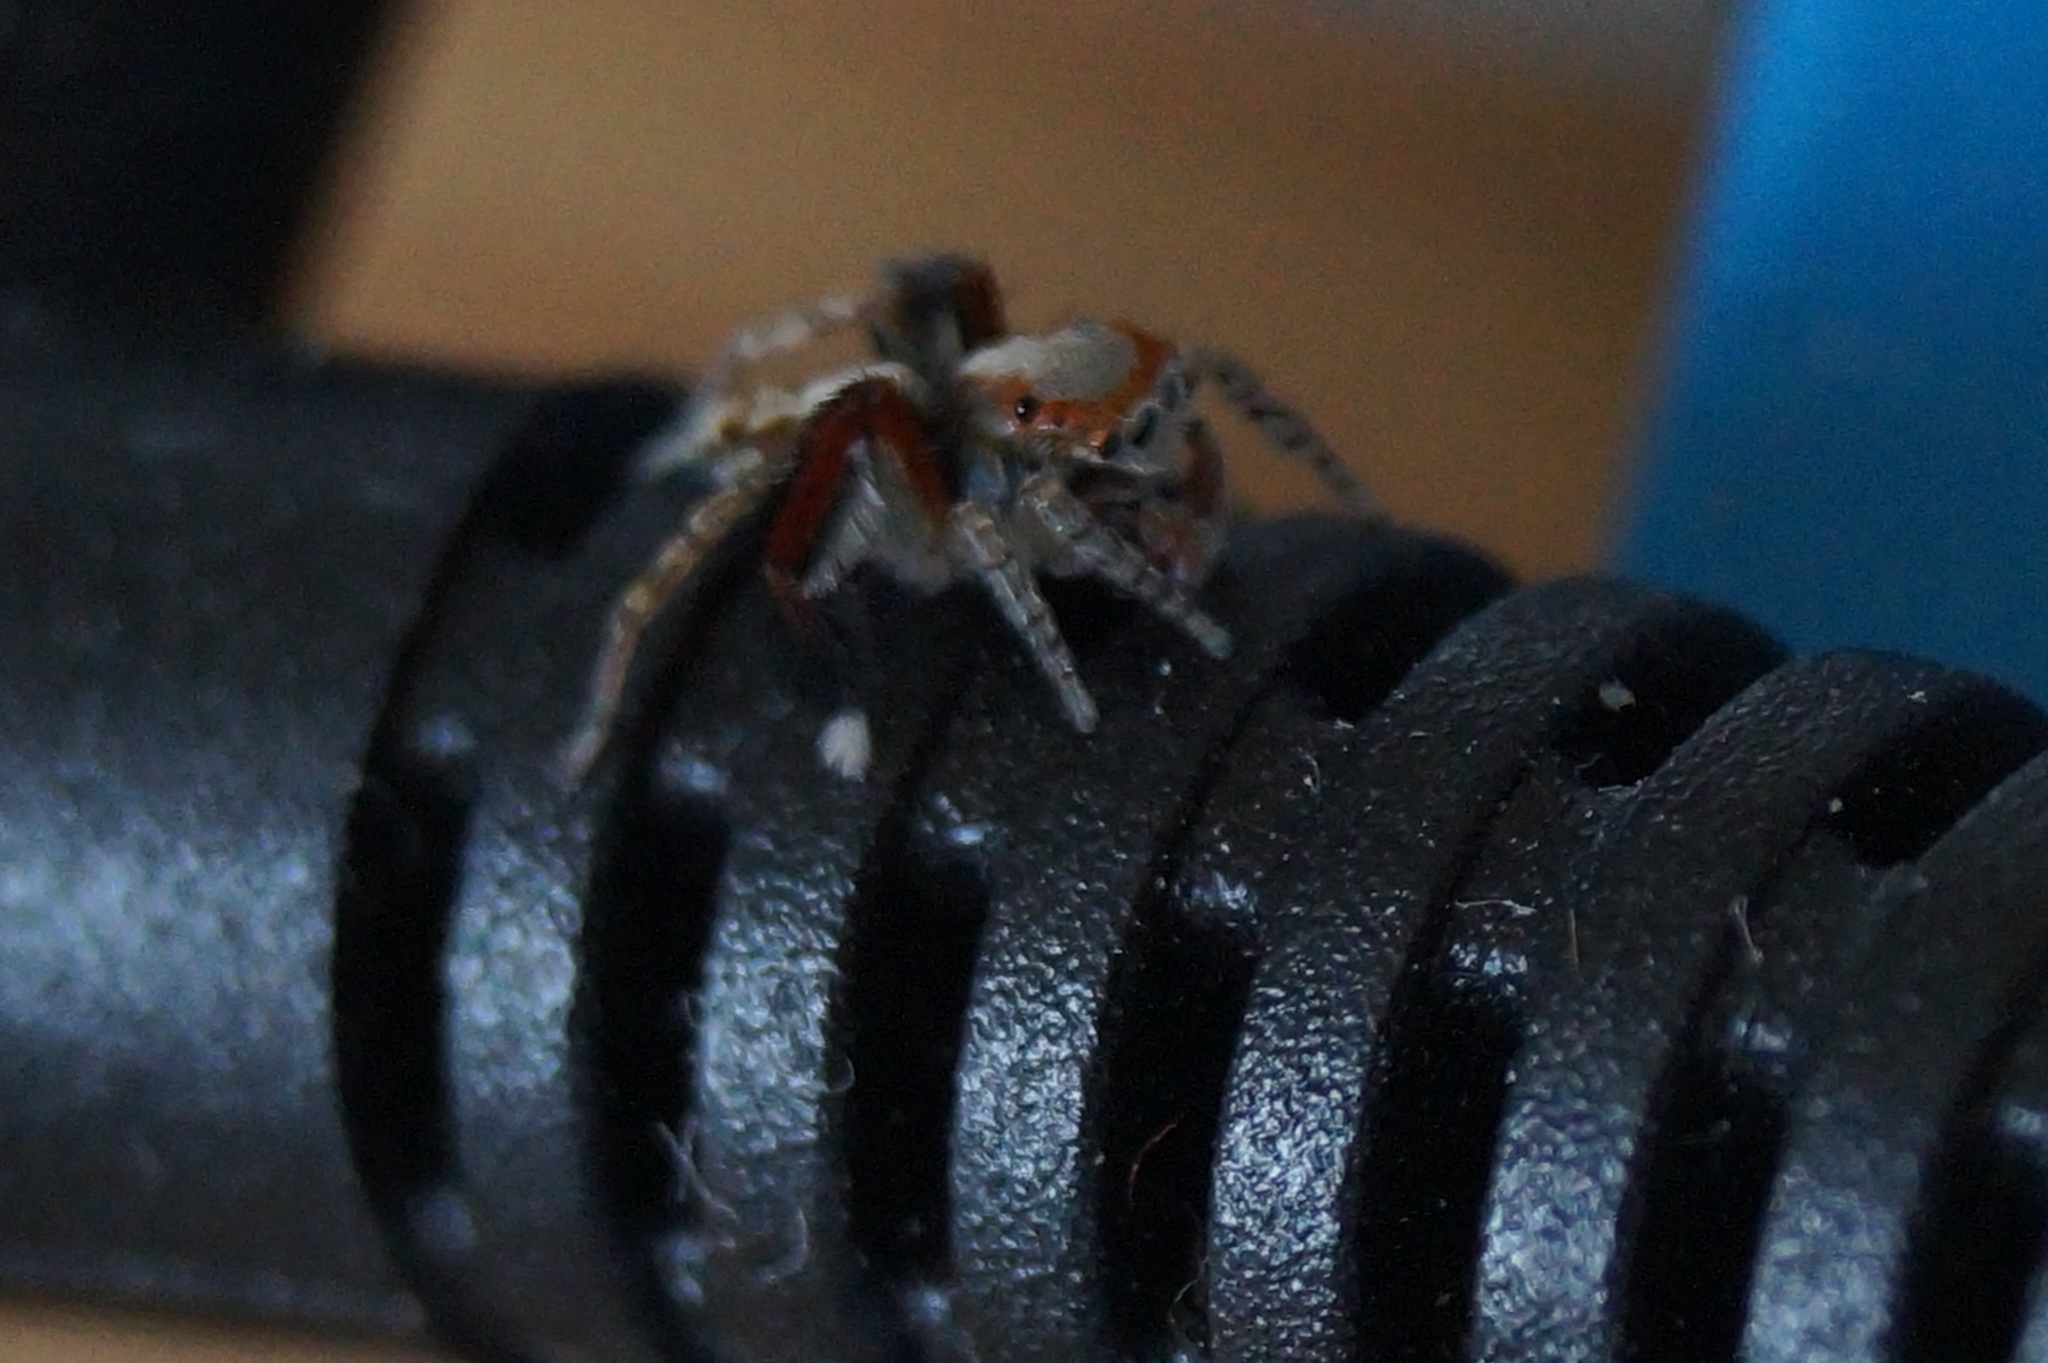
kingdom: Animalia
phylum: Arthropoda
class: Arachnida
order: Araneae
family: Salticidae
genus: Saitis
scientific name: Saitis barbipes
